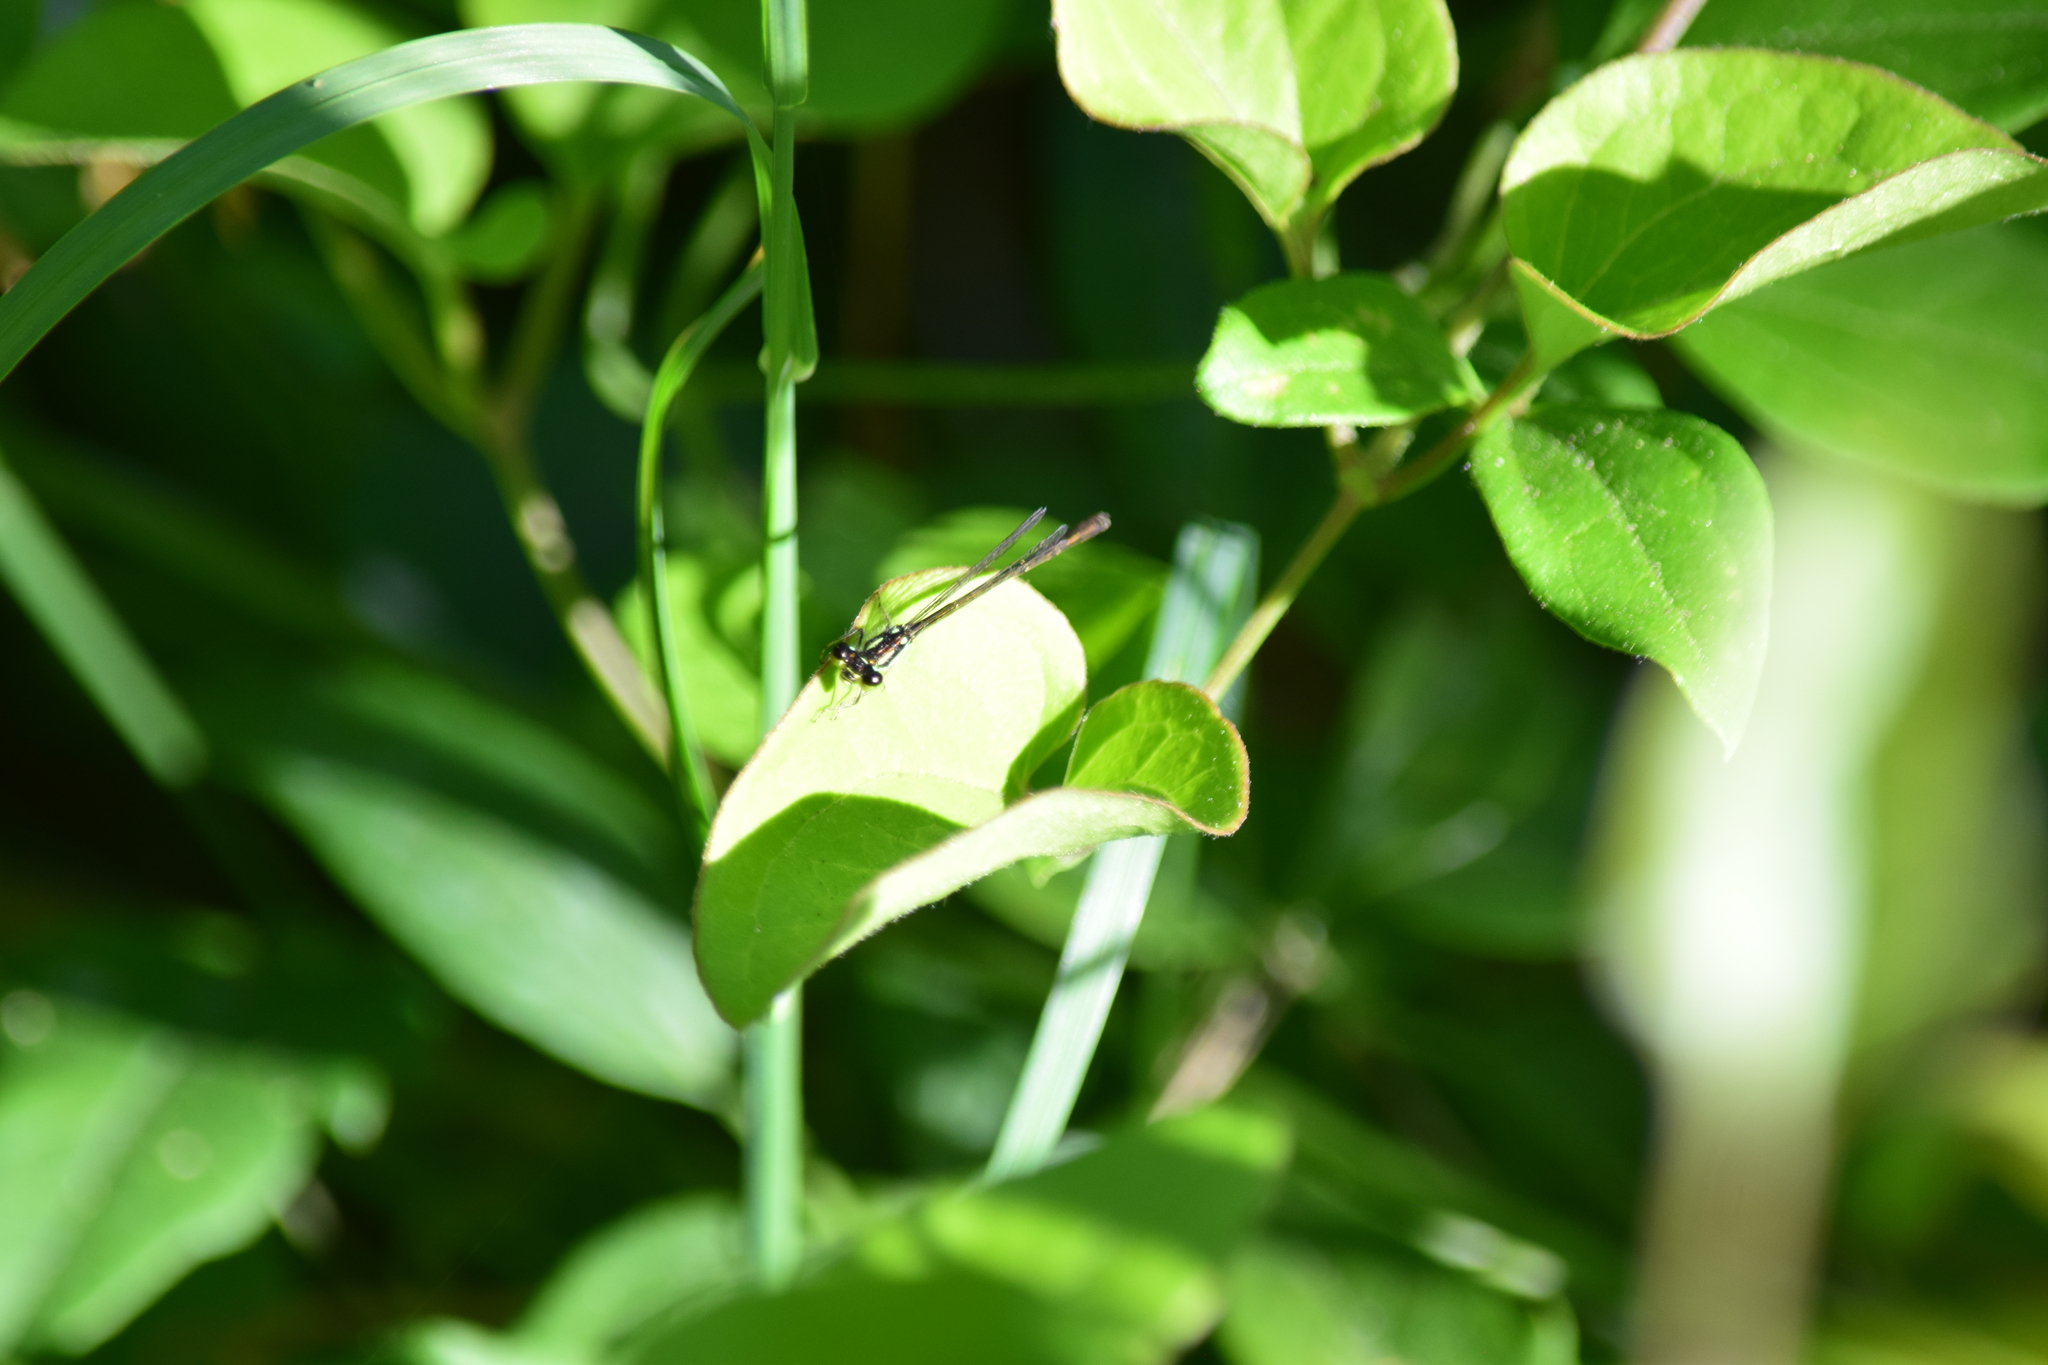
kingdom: Animalia
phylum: Arthropoda
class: Insecta
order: Odonata
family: Coenagrionidae
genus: Ischnura
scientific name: Ischnura posita
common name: Fragile forktail
